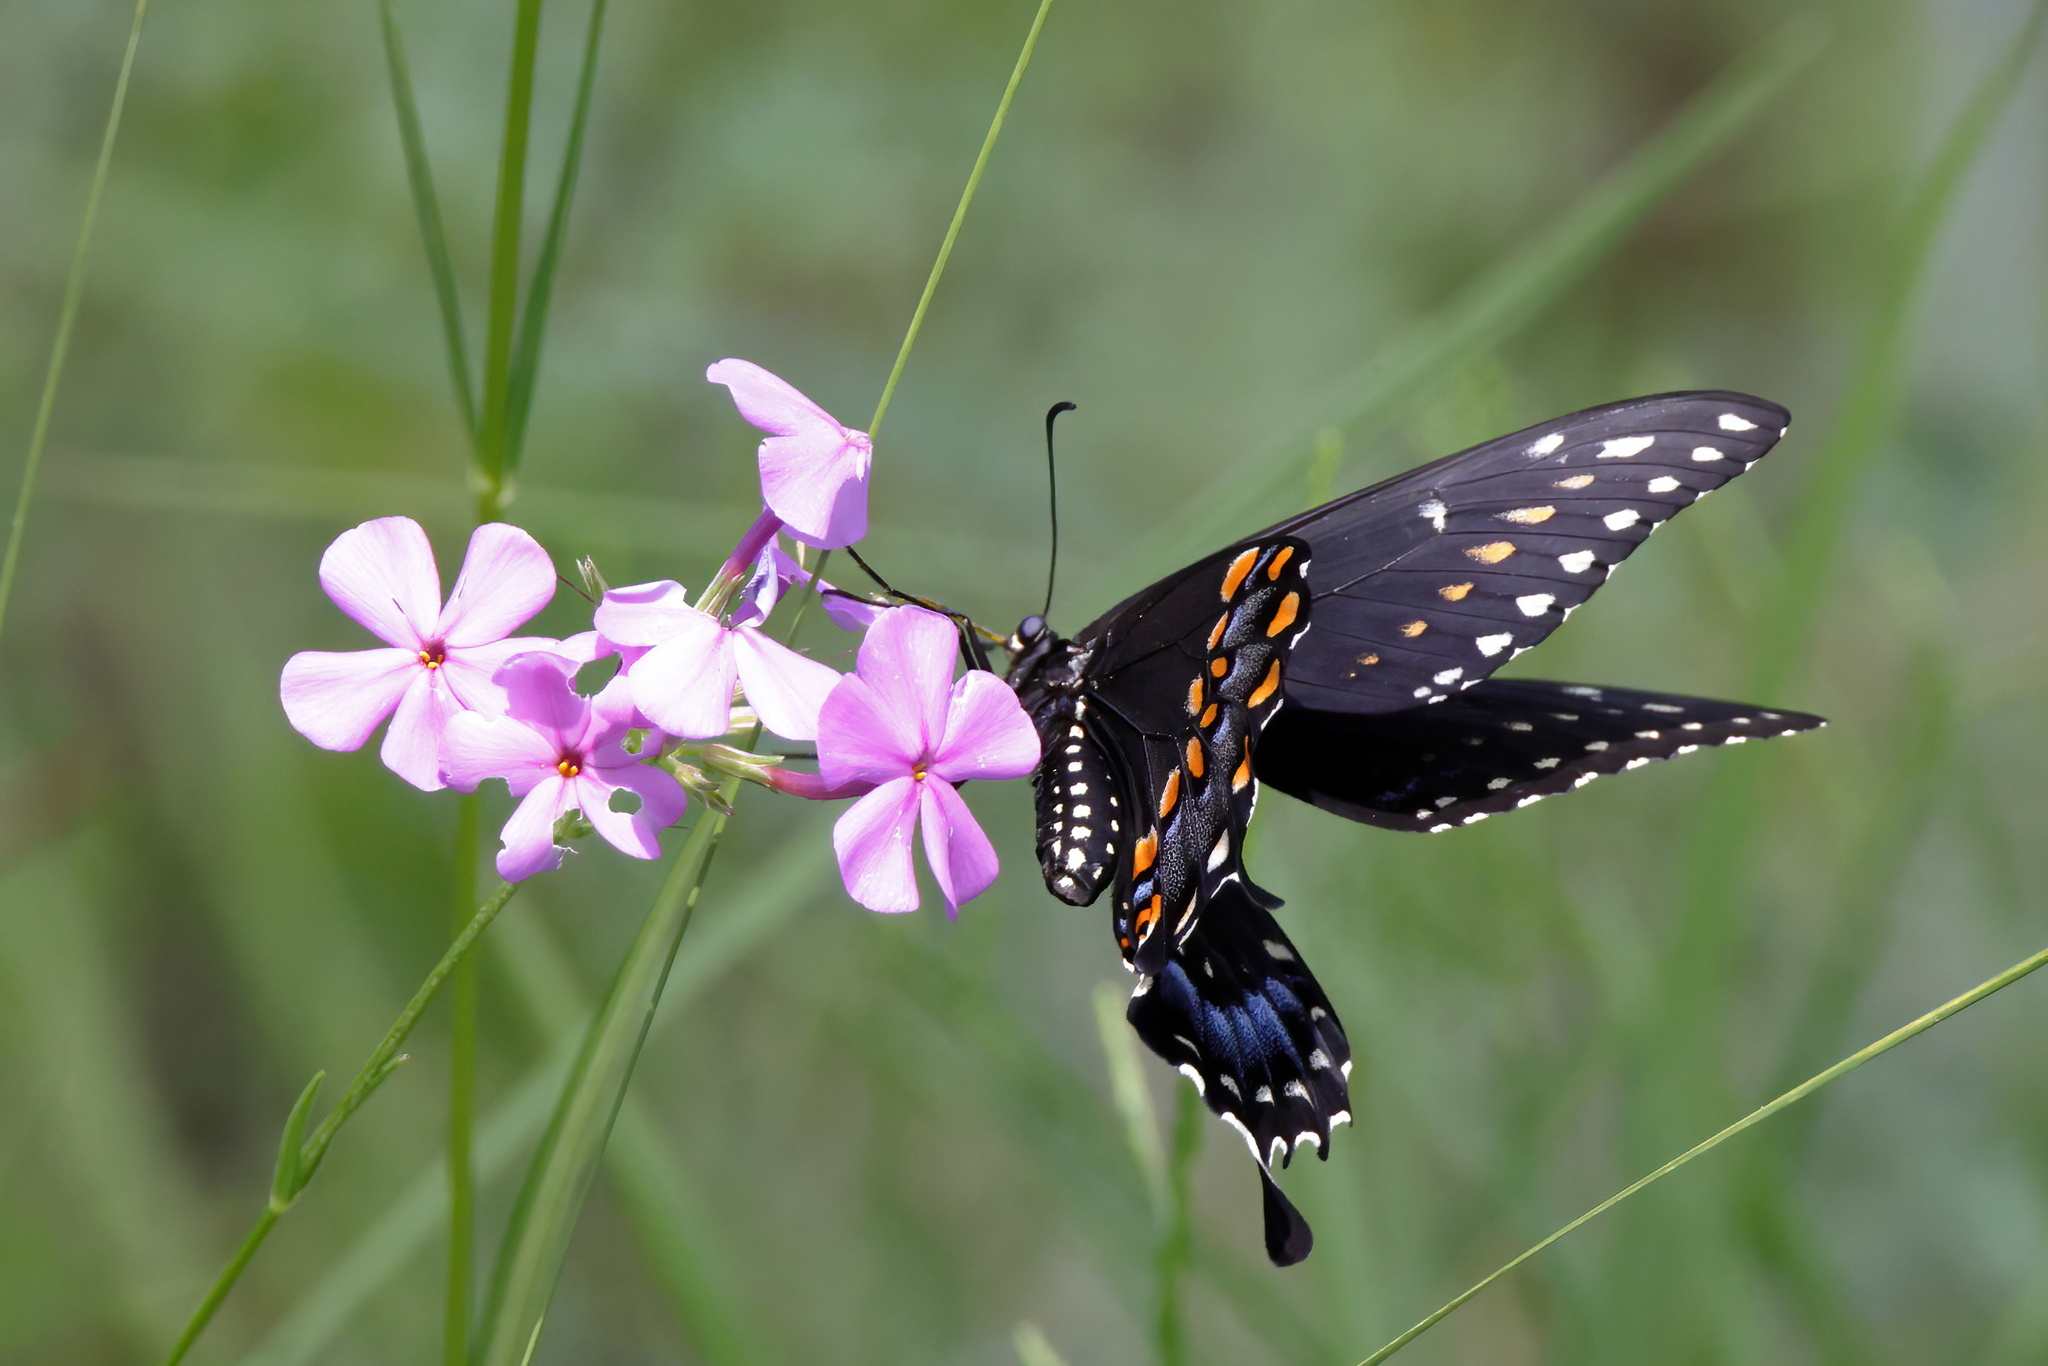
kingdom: Animalia
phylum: Arthropoda
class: Insecta
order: Lepidoptera
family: Papilionidae
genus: Papilio
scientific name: Papilio polyxenes
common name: Black swallowtail
